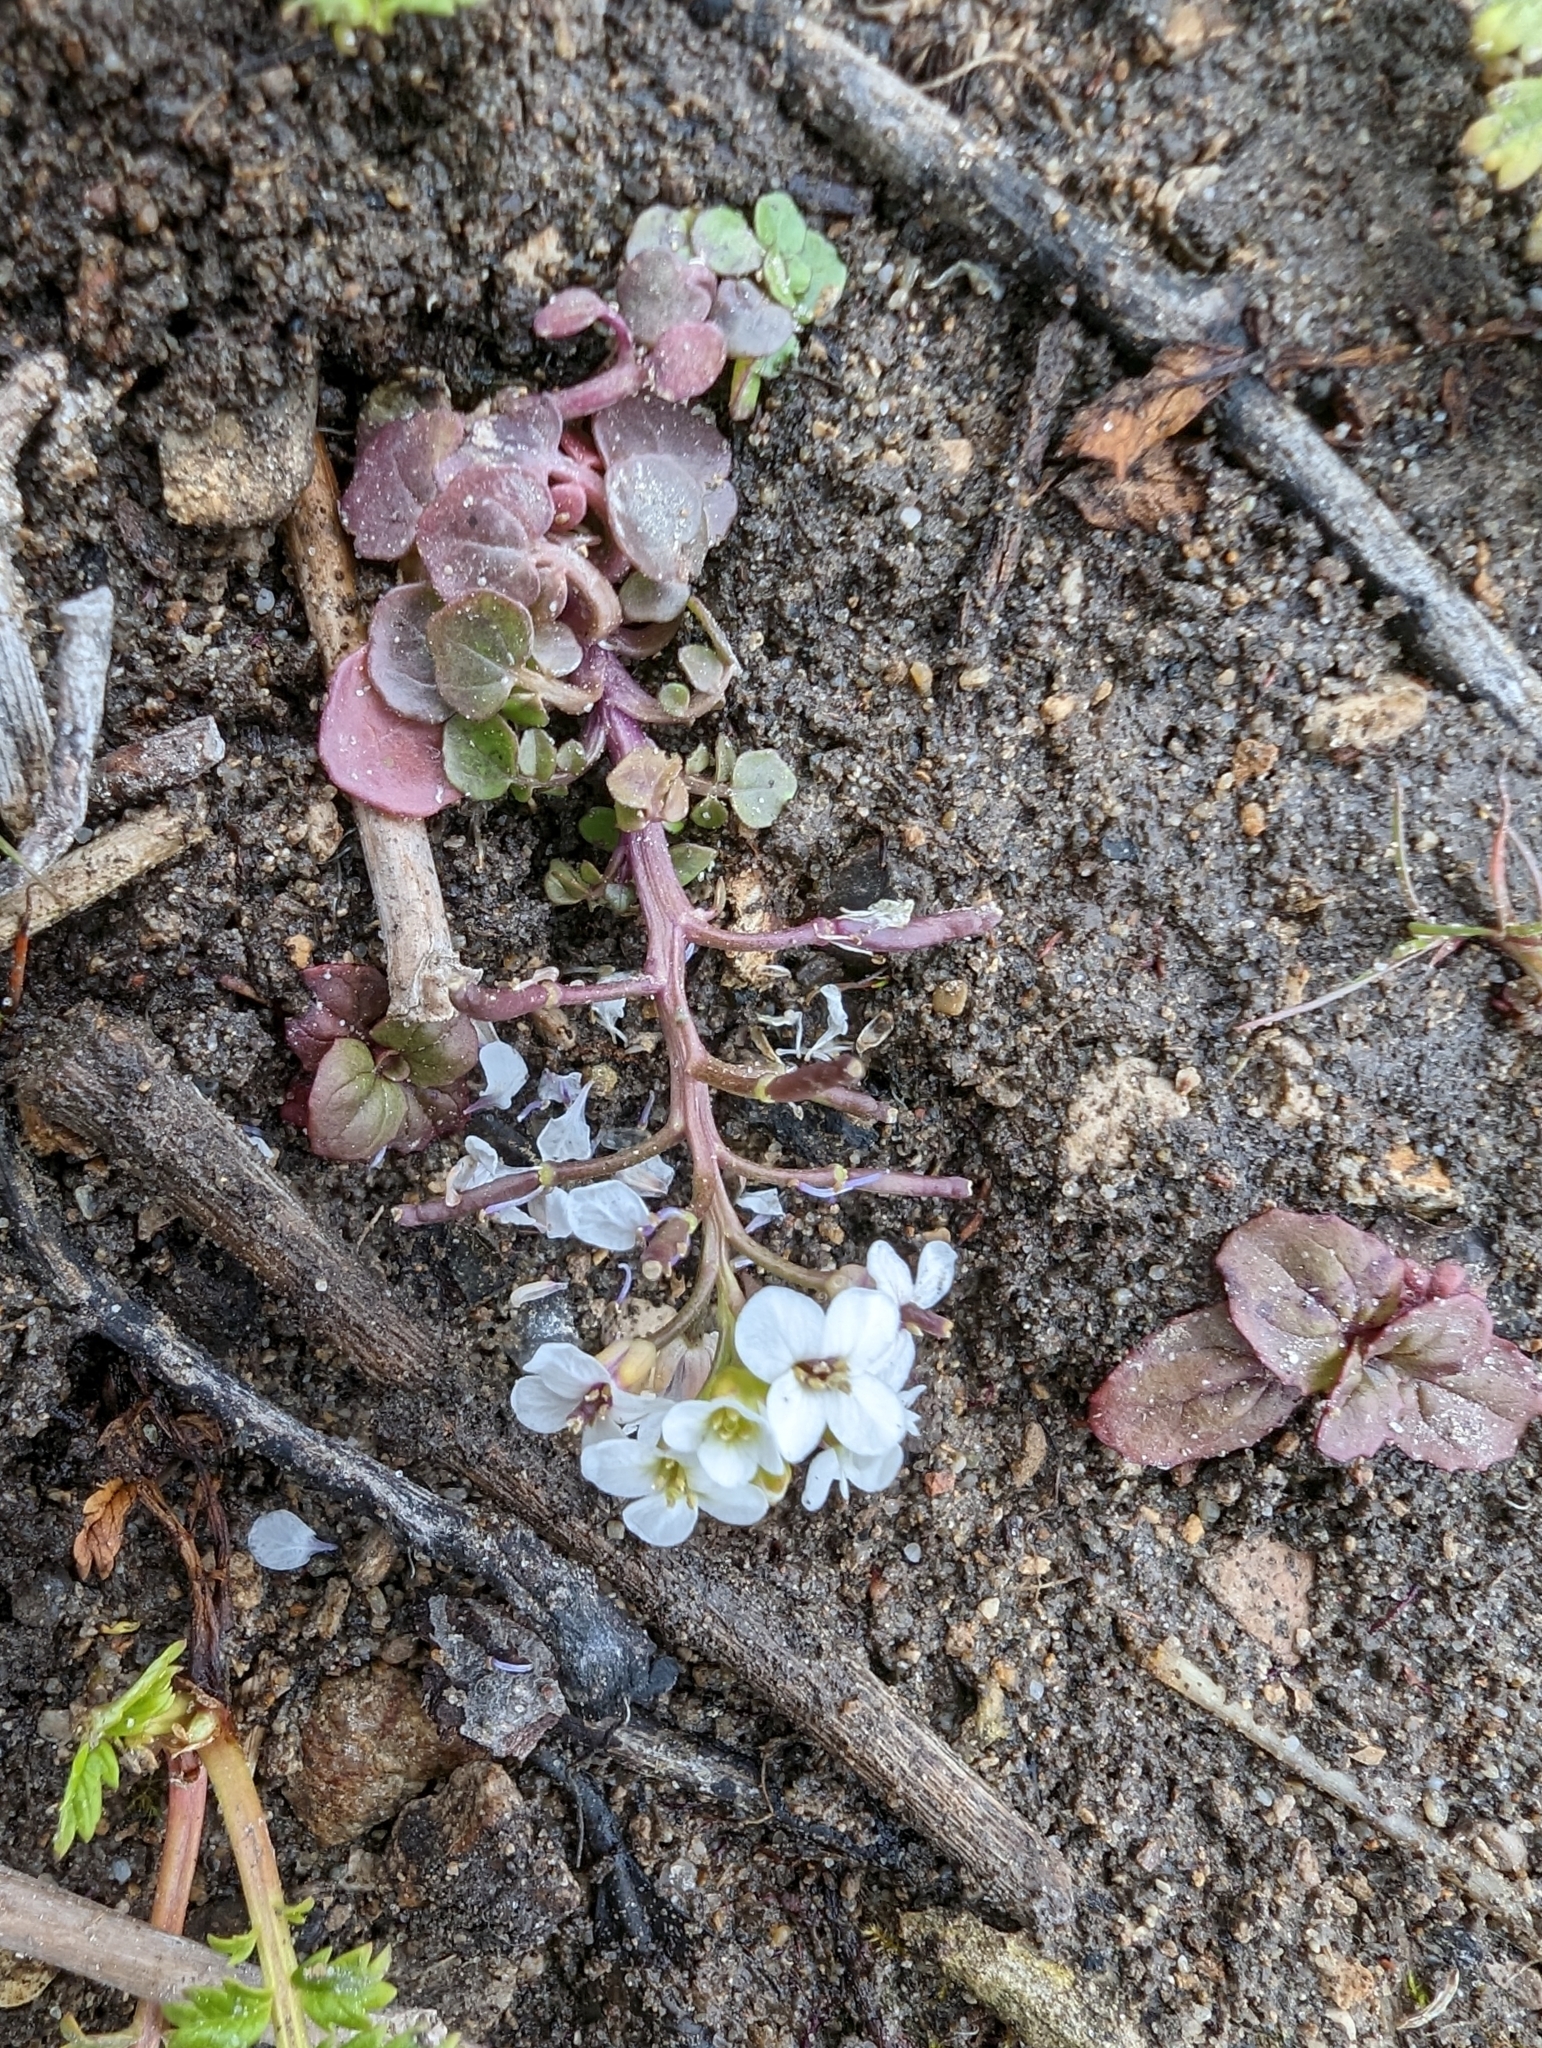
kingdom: Plantae
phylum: Tracheophyta
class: Magnoliopsida
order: Brassicales
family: Brassicaceae
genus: Nasturtium
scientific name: Nasturtium officinale
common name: Watercress
